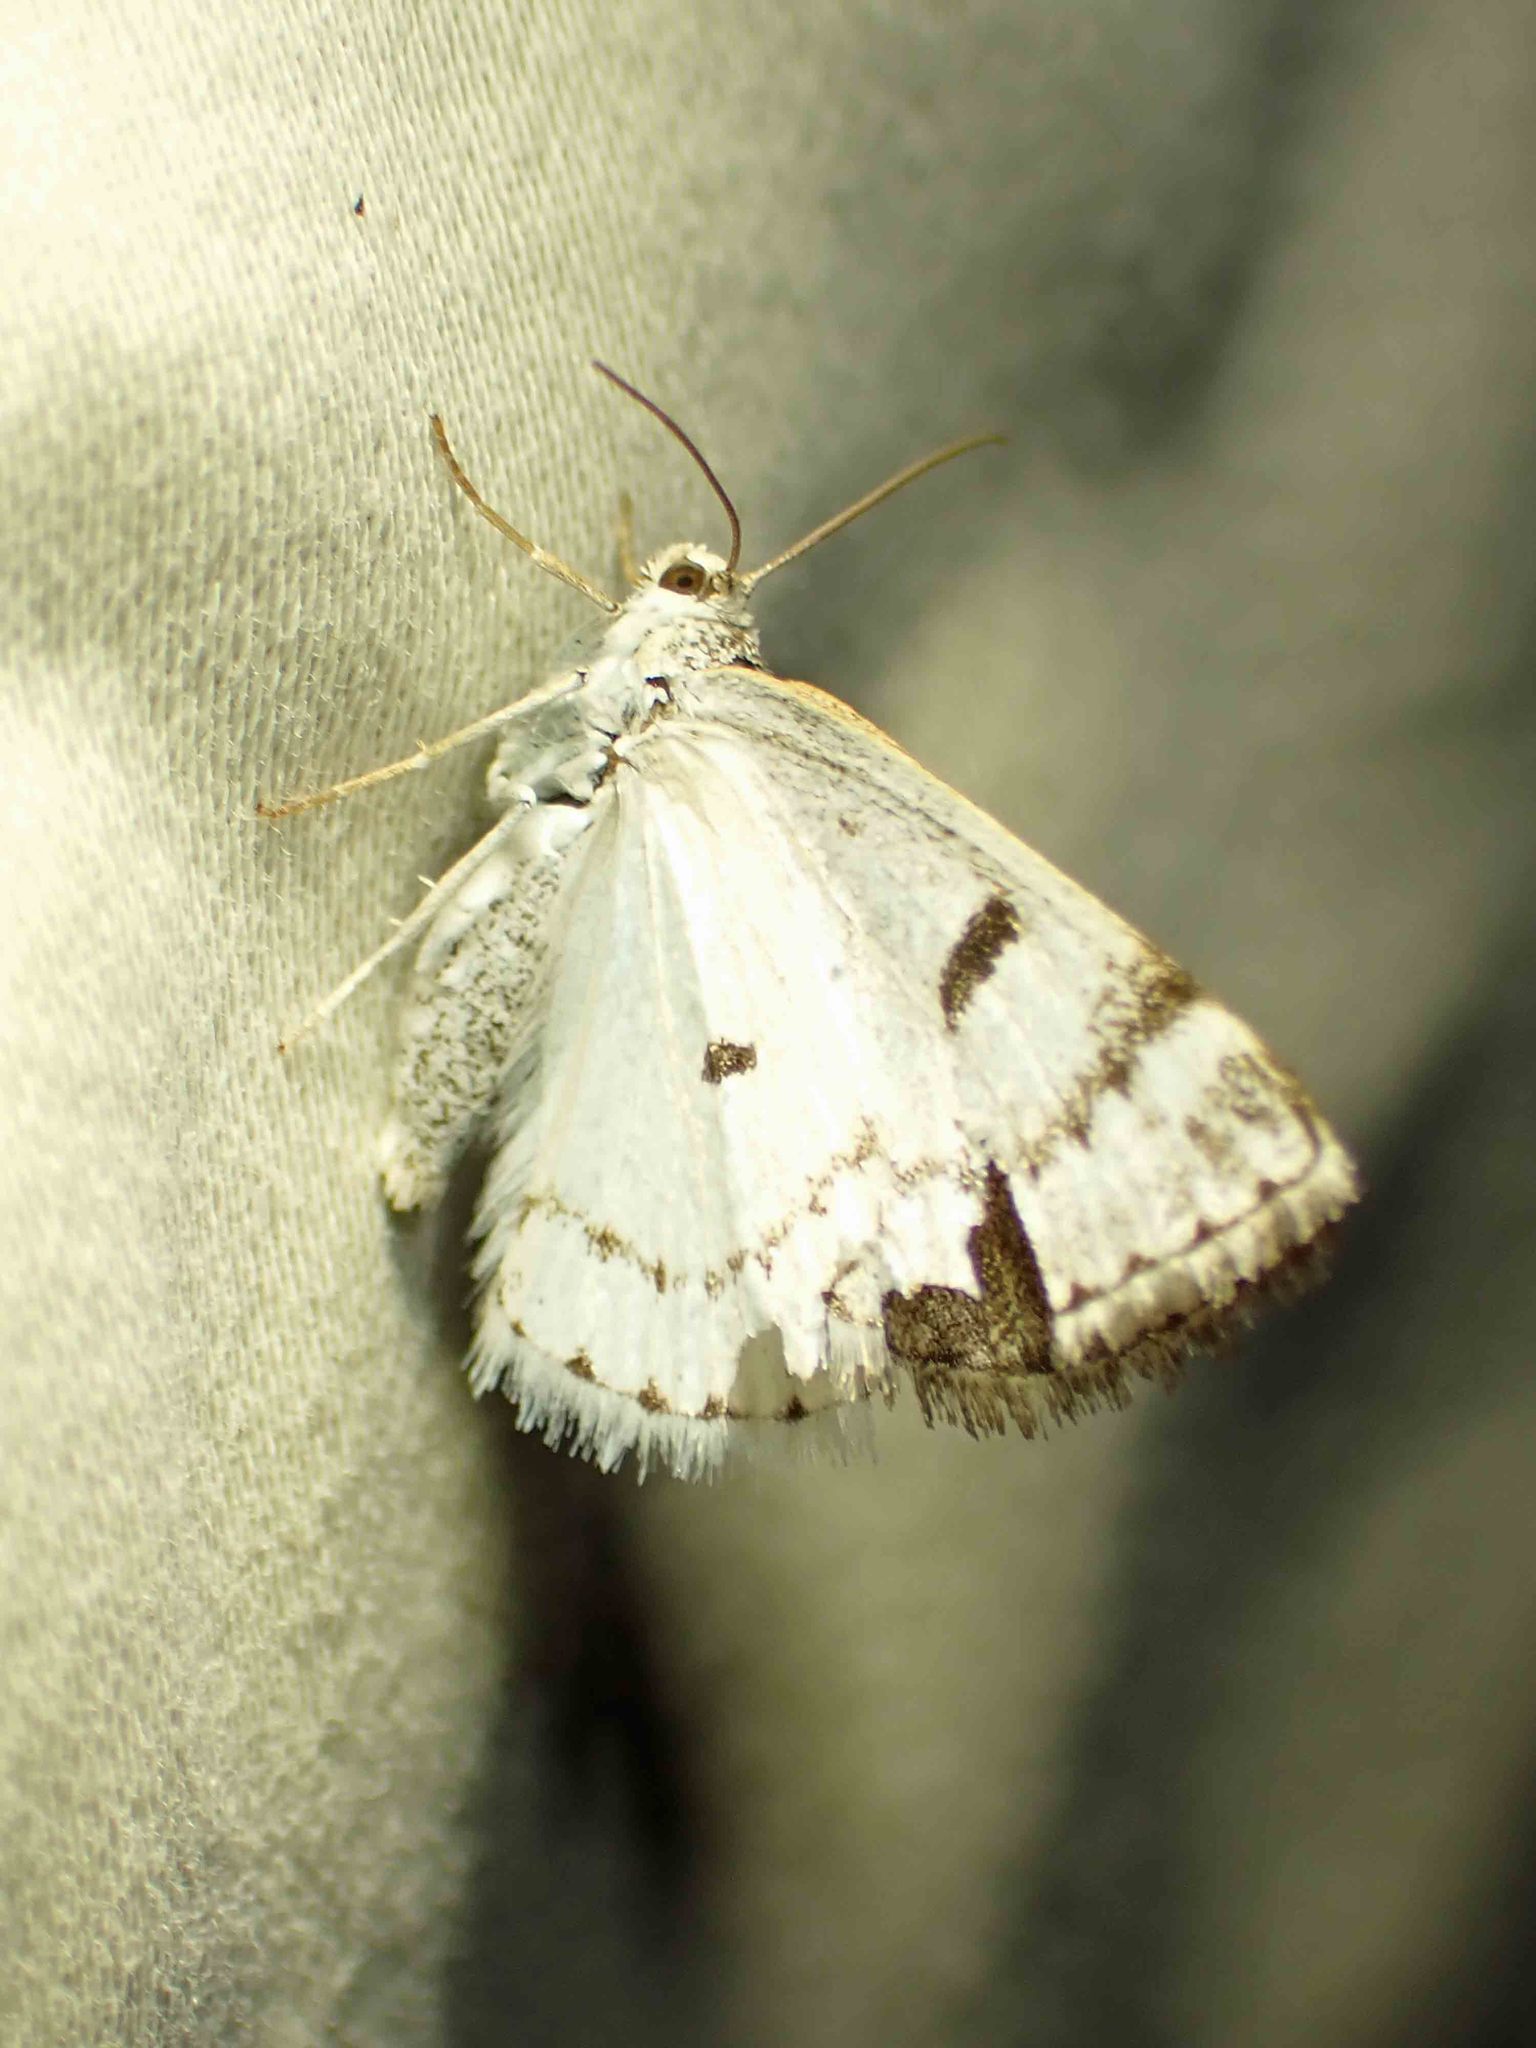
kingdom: Animalia
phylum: Arthropoda
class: Insecta
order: Lepidoptera
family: Geometridae
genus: Lomographa
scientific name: Lomographa semiclarata
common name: Bluish spring moth
